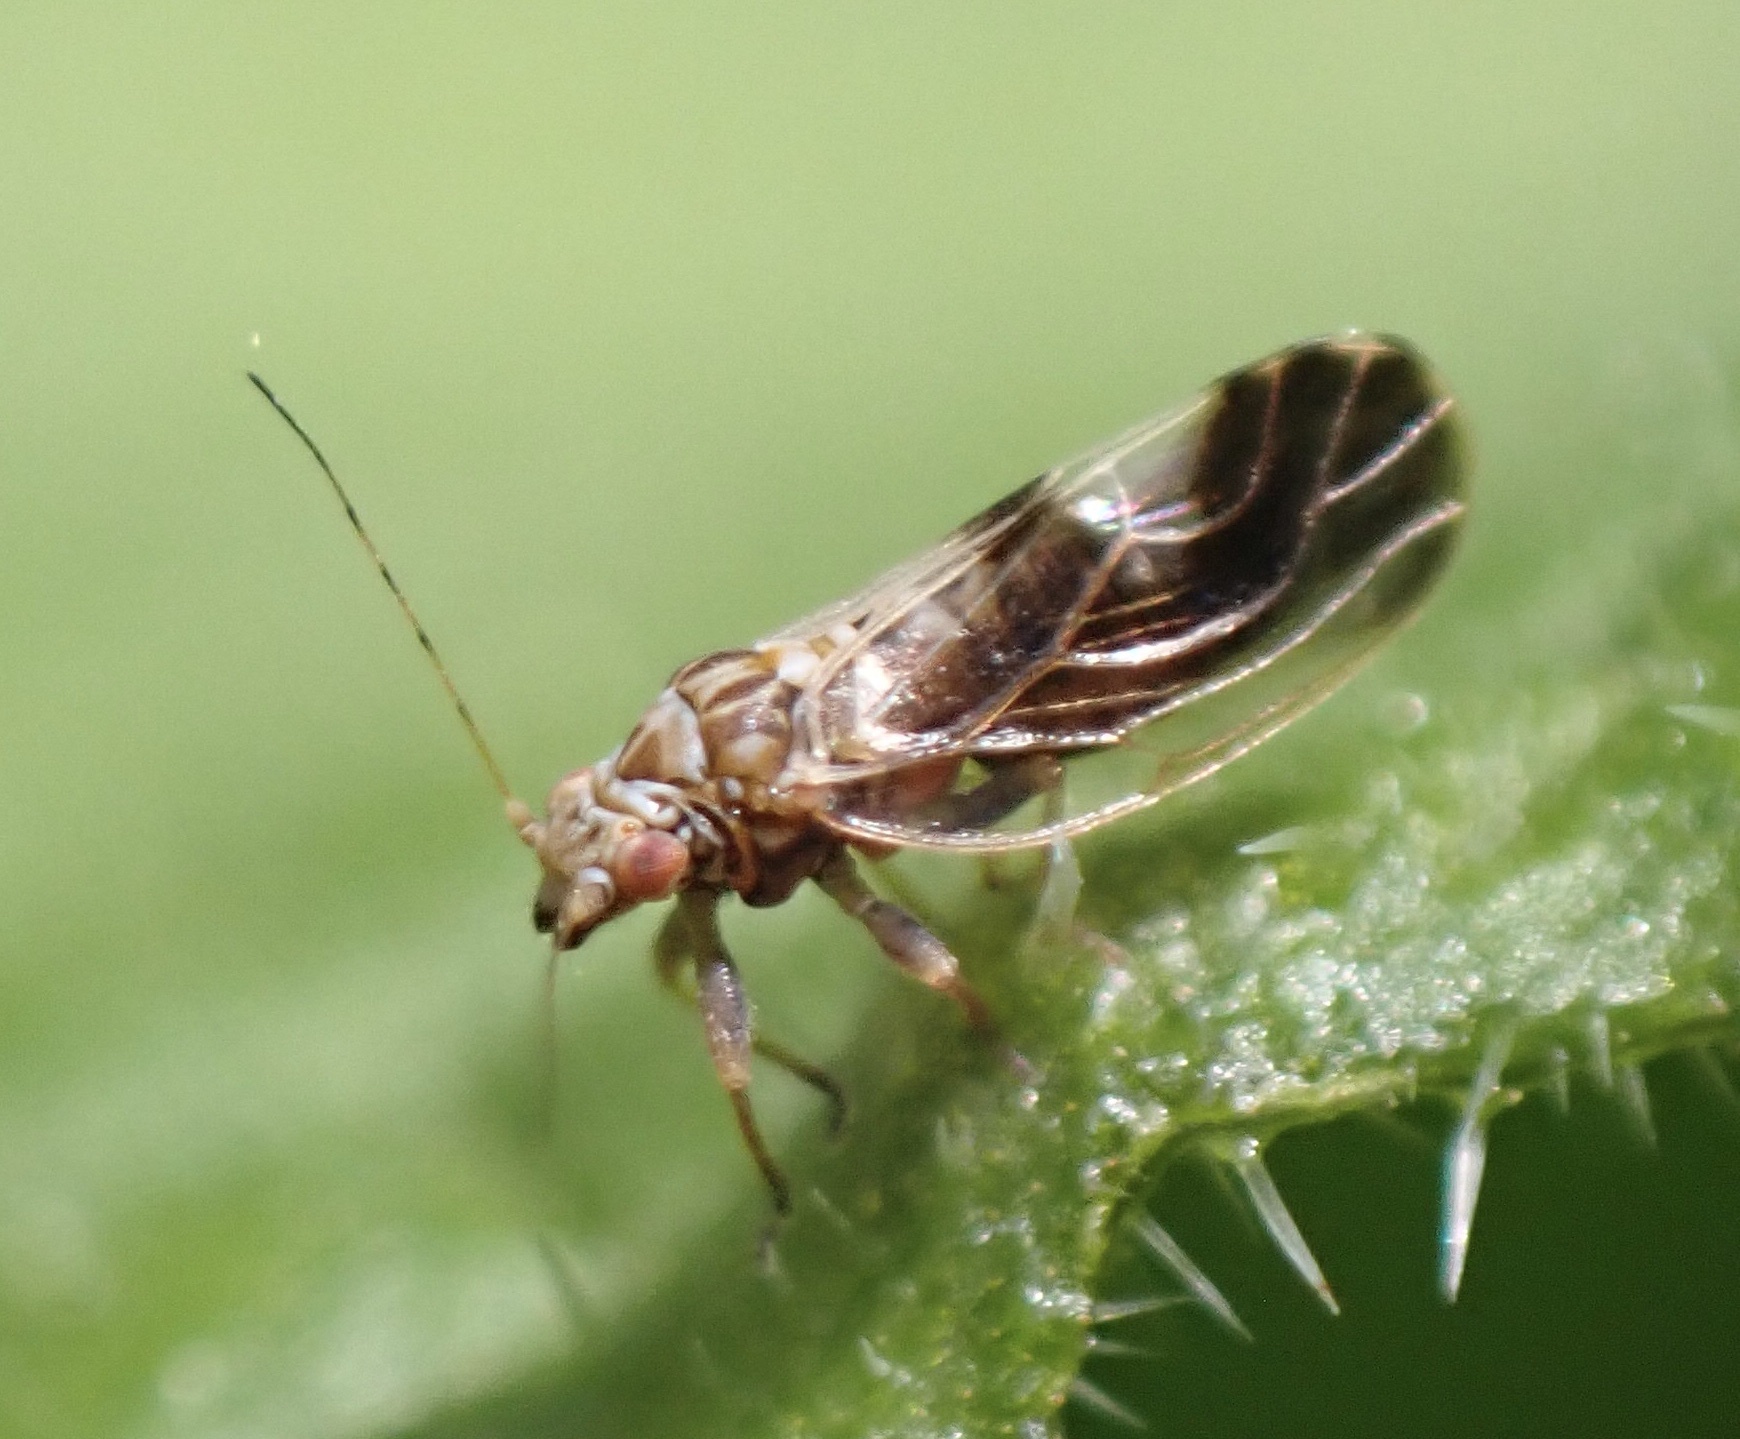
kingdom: Animalia
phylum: Arthropoda
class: Insecta
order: Hemiptera
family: Psyllidae
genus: Cacopsylla
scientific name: Cacopsylla fulguralis
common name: Elaeagnus sucker
